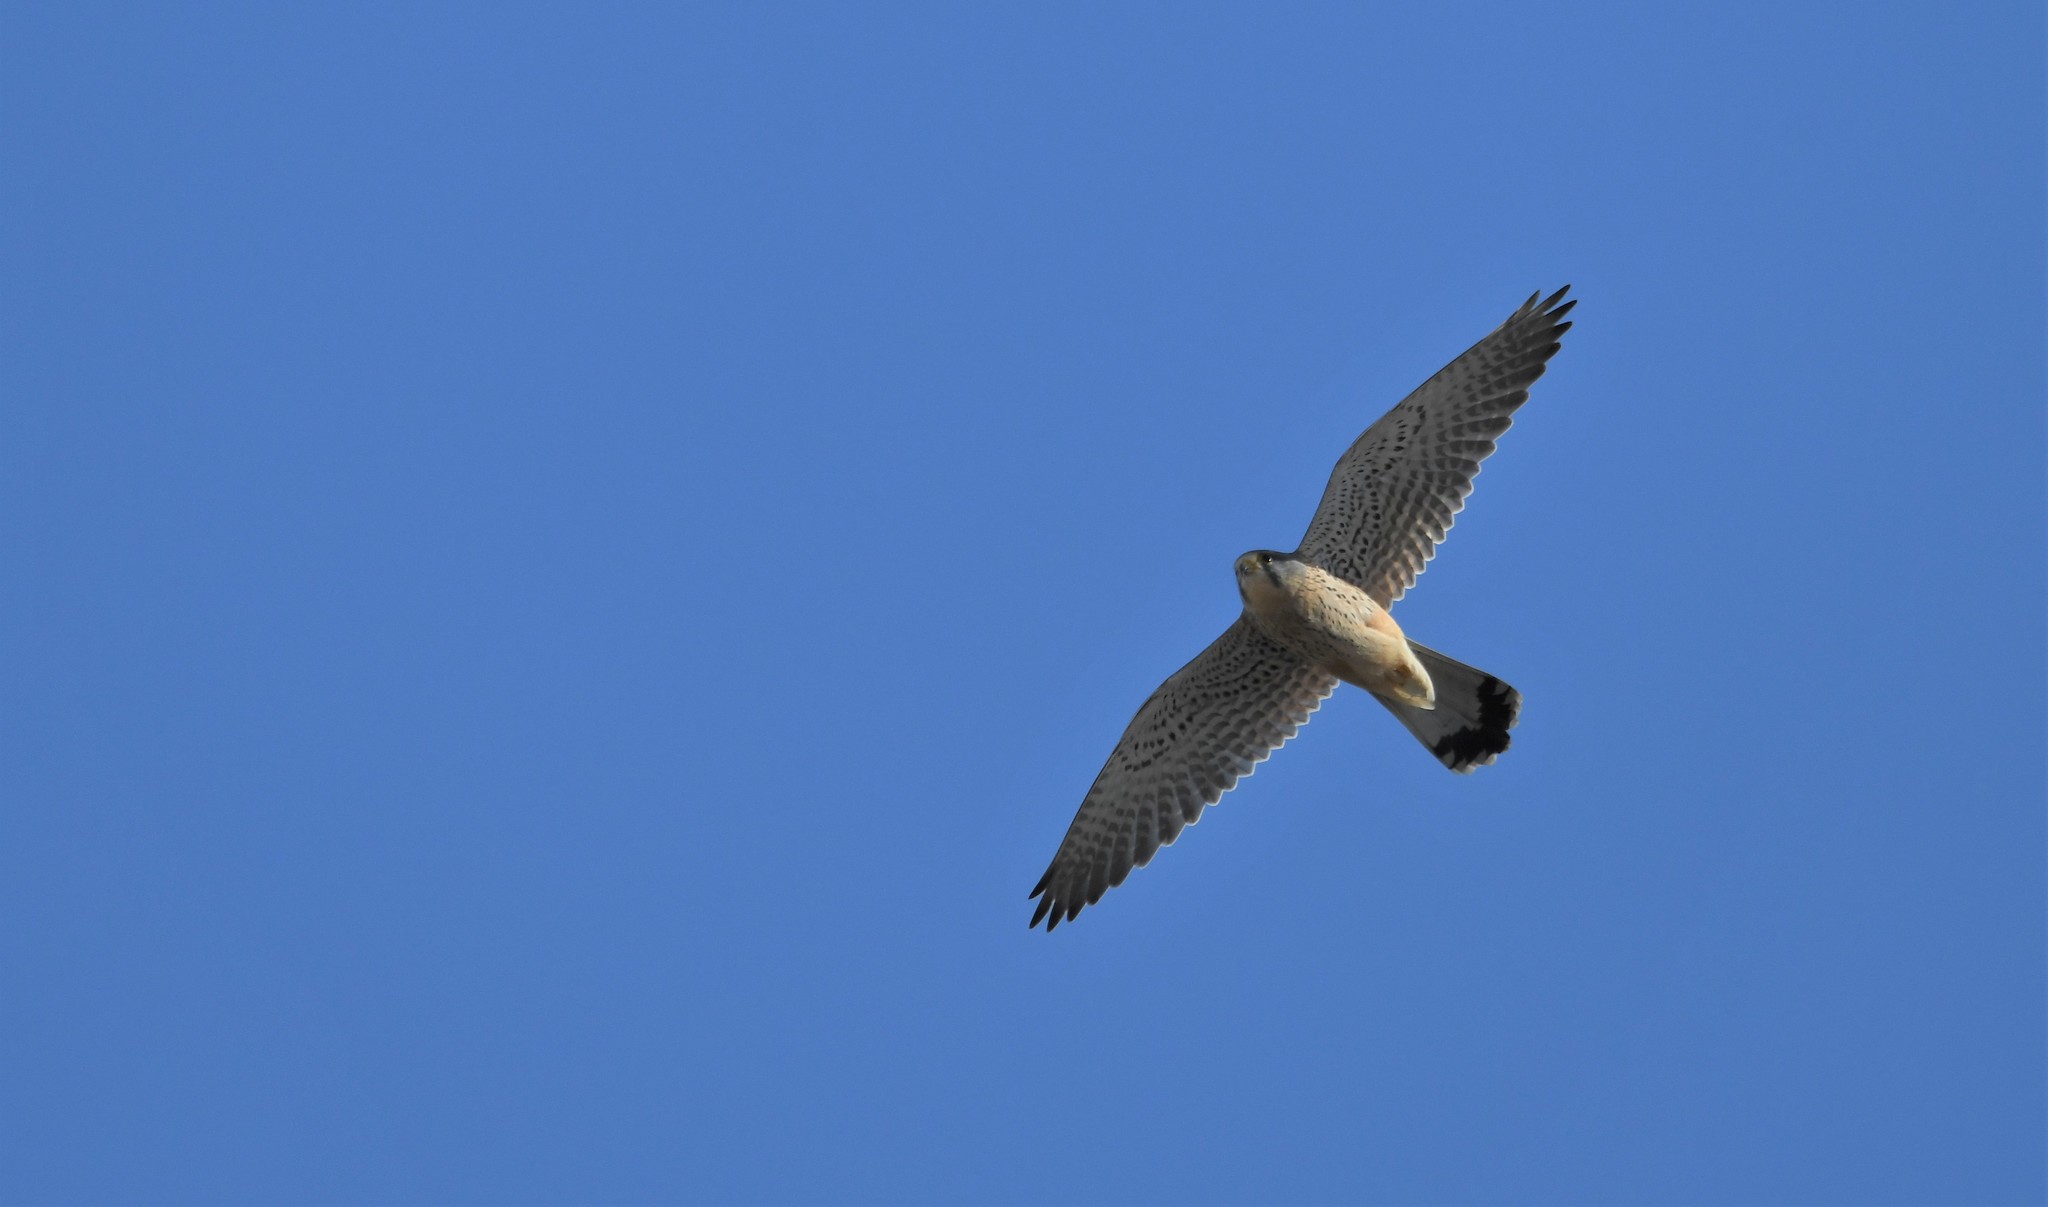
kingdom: Animalia
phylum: Chordata
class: Aves
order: Falconiformes
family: Falconidae
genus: Falco
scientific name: Falco tinnunculus
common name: Common kestrel
